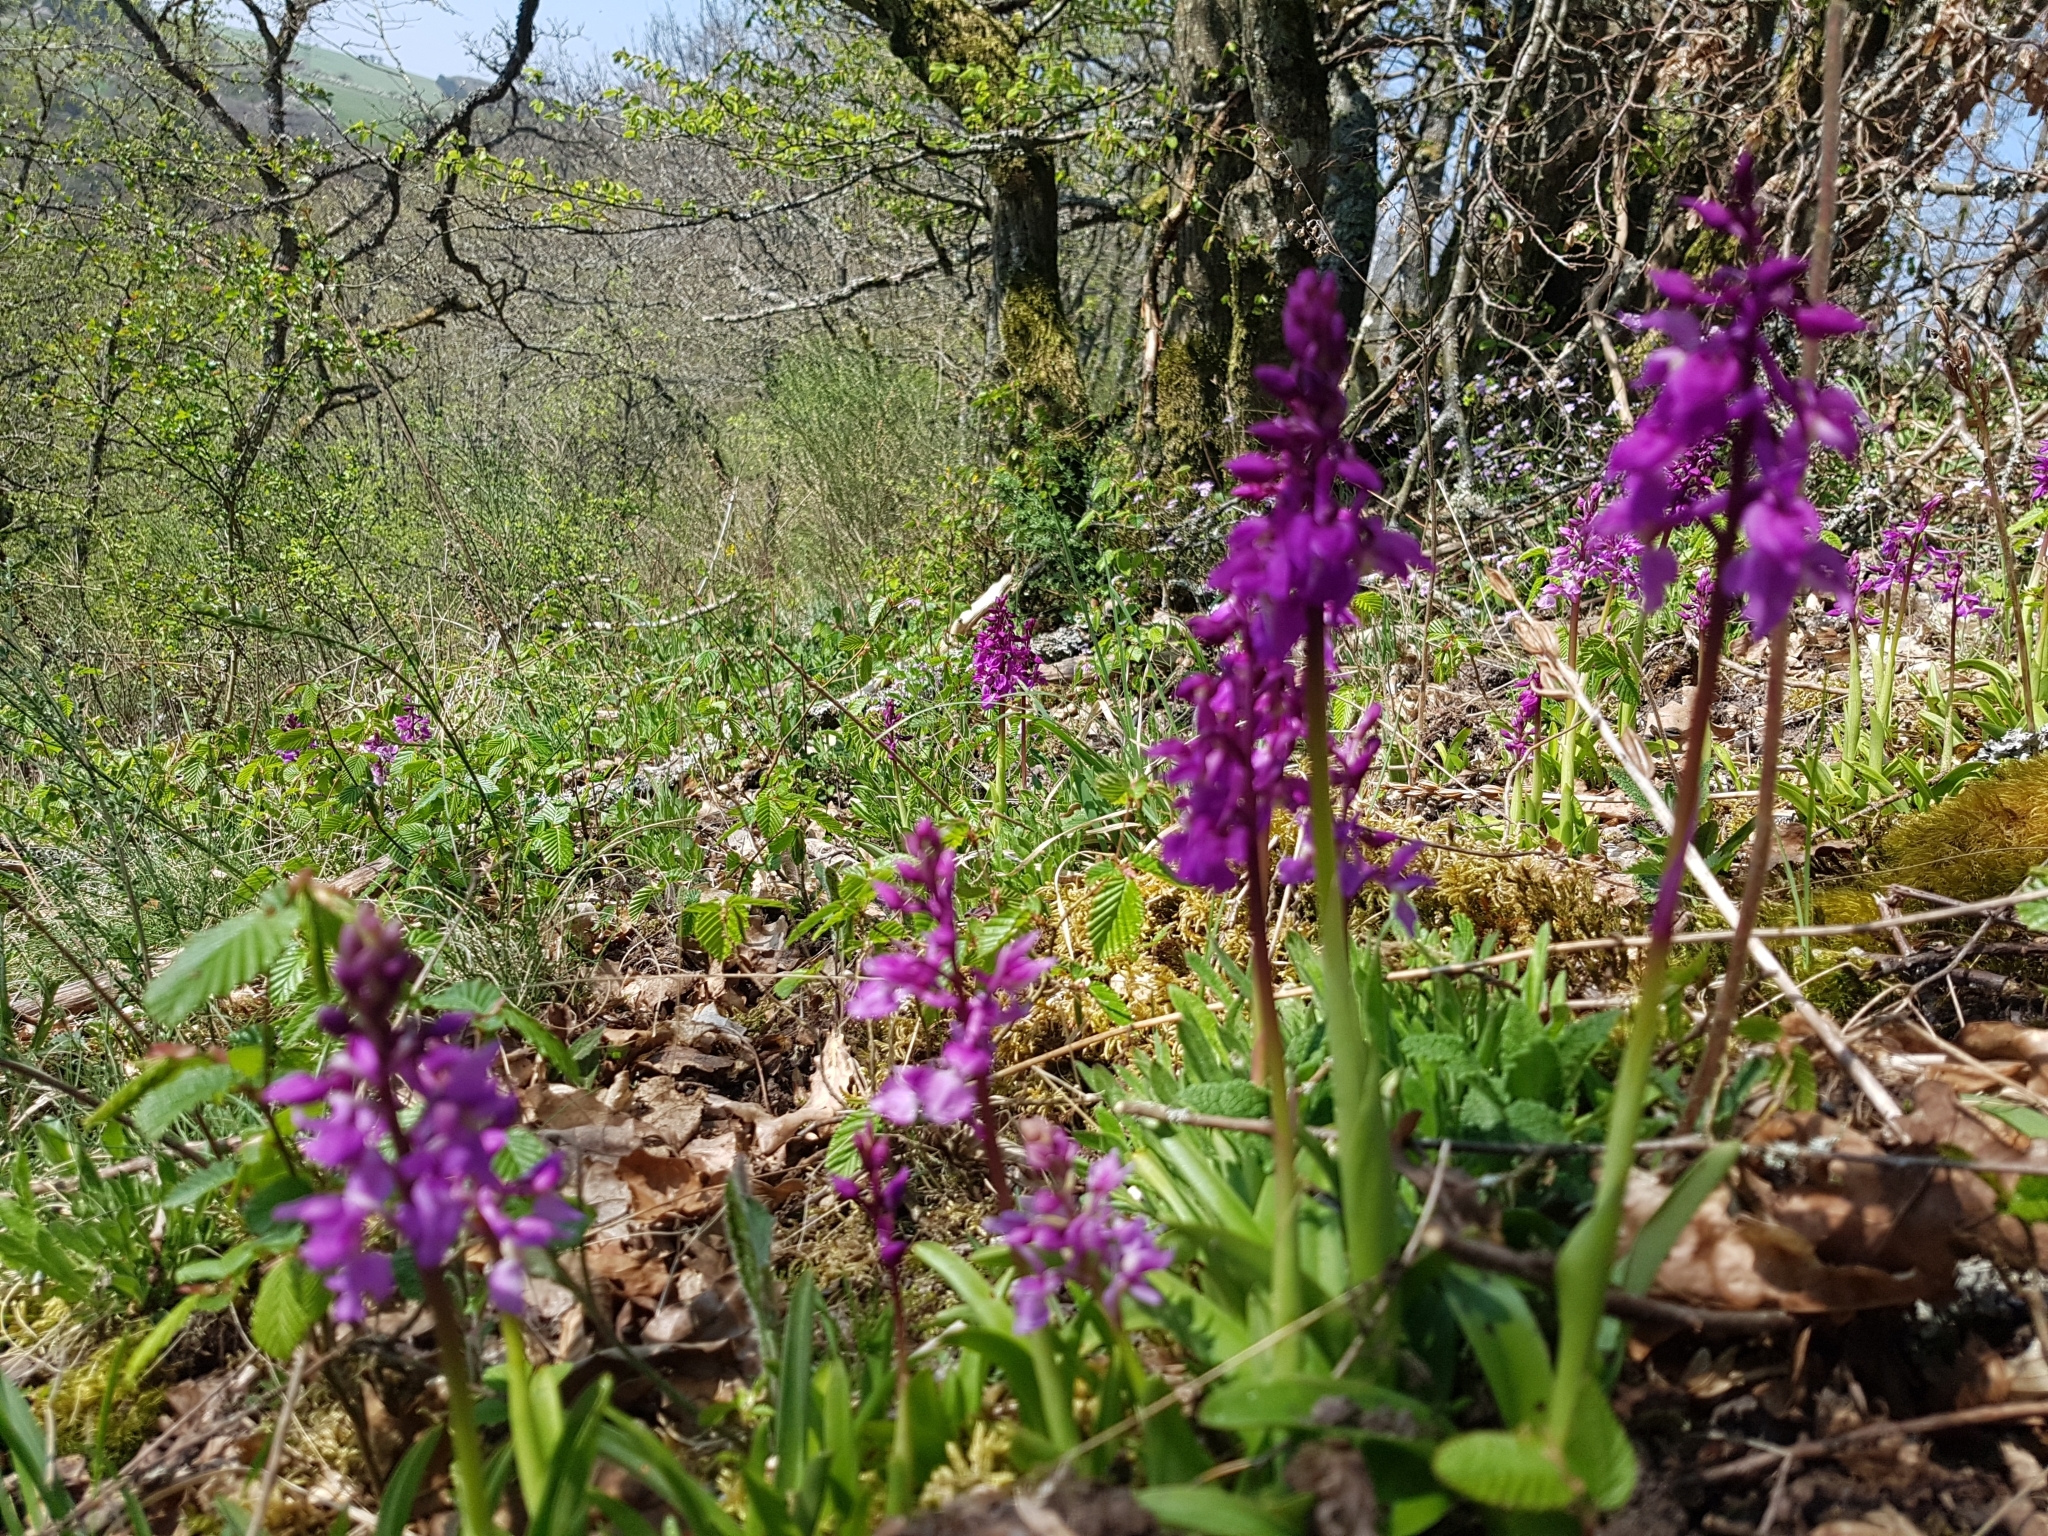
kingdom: Plantae
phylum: Tracheophyta
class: Liliopsida
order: Asparagales
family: Orchidaceae
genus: Orchis
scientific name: Orchis mascula
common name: Early-purple orchid
